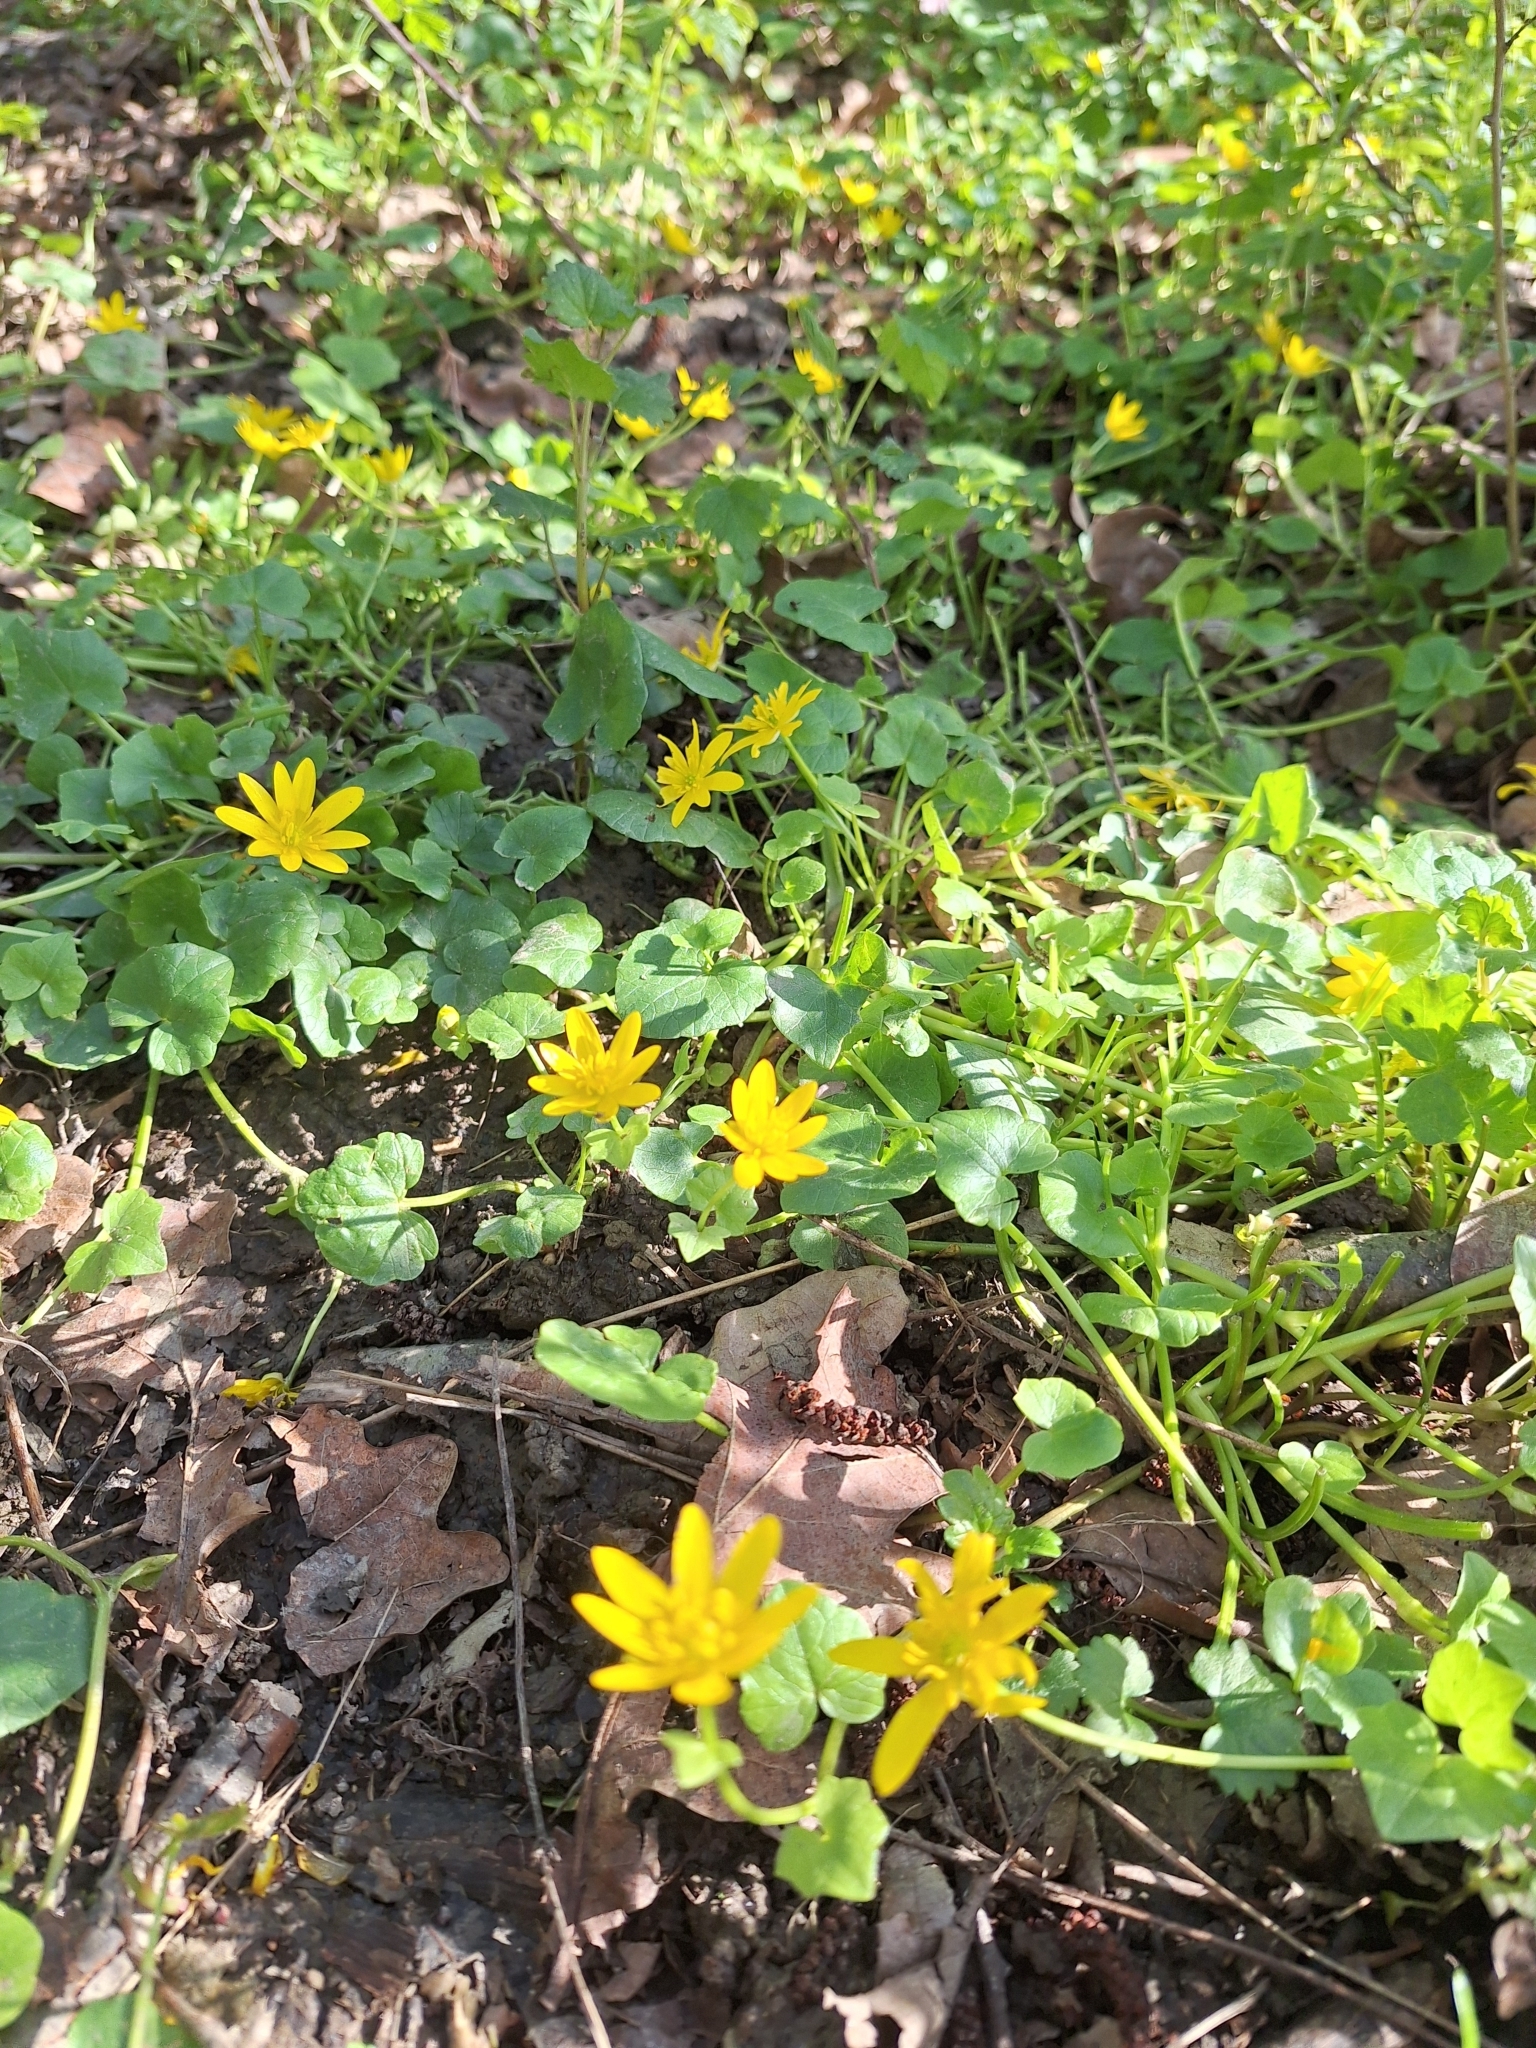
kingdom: Plantae
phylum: Tracheophyta
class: Magnoliopsida
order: Ranunculales
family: Ranunculaceae
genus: Ficaria
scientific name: Ficaria verna
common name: Lesser celandine
